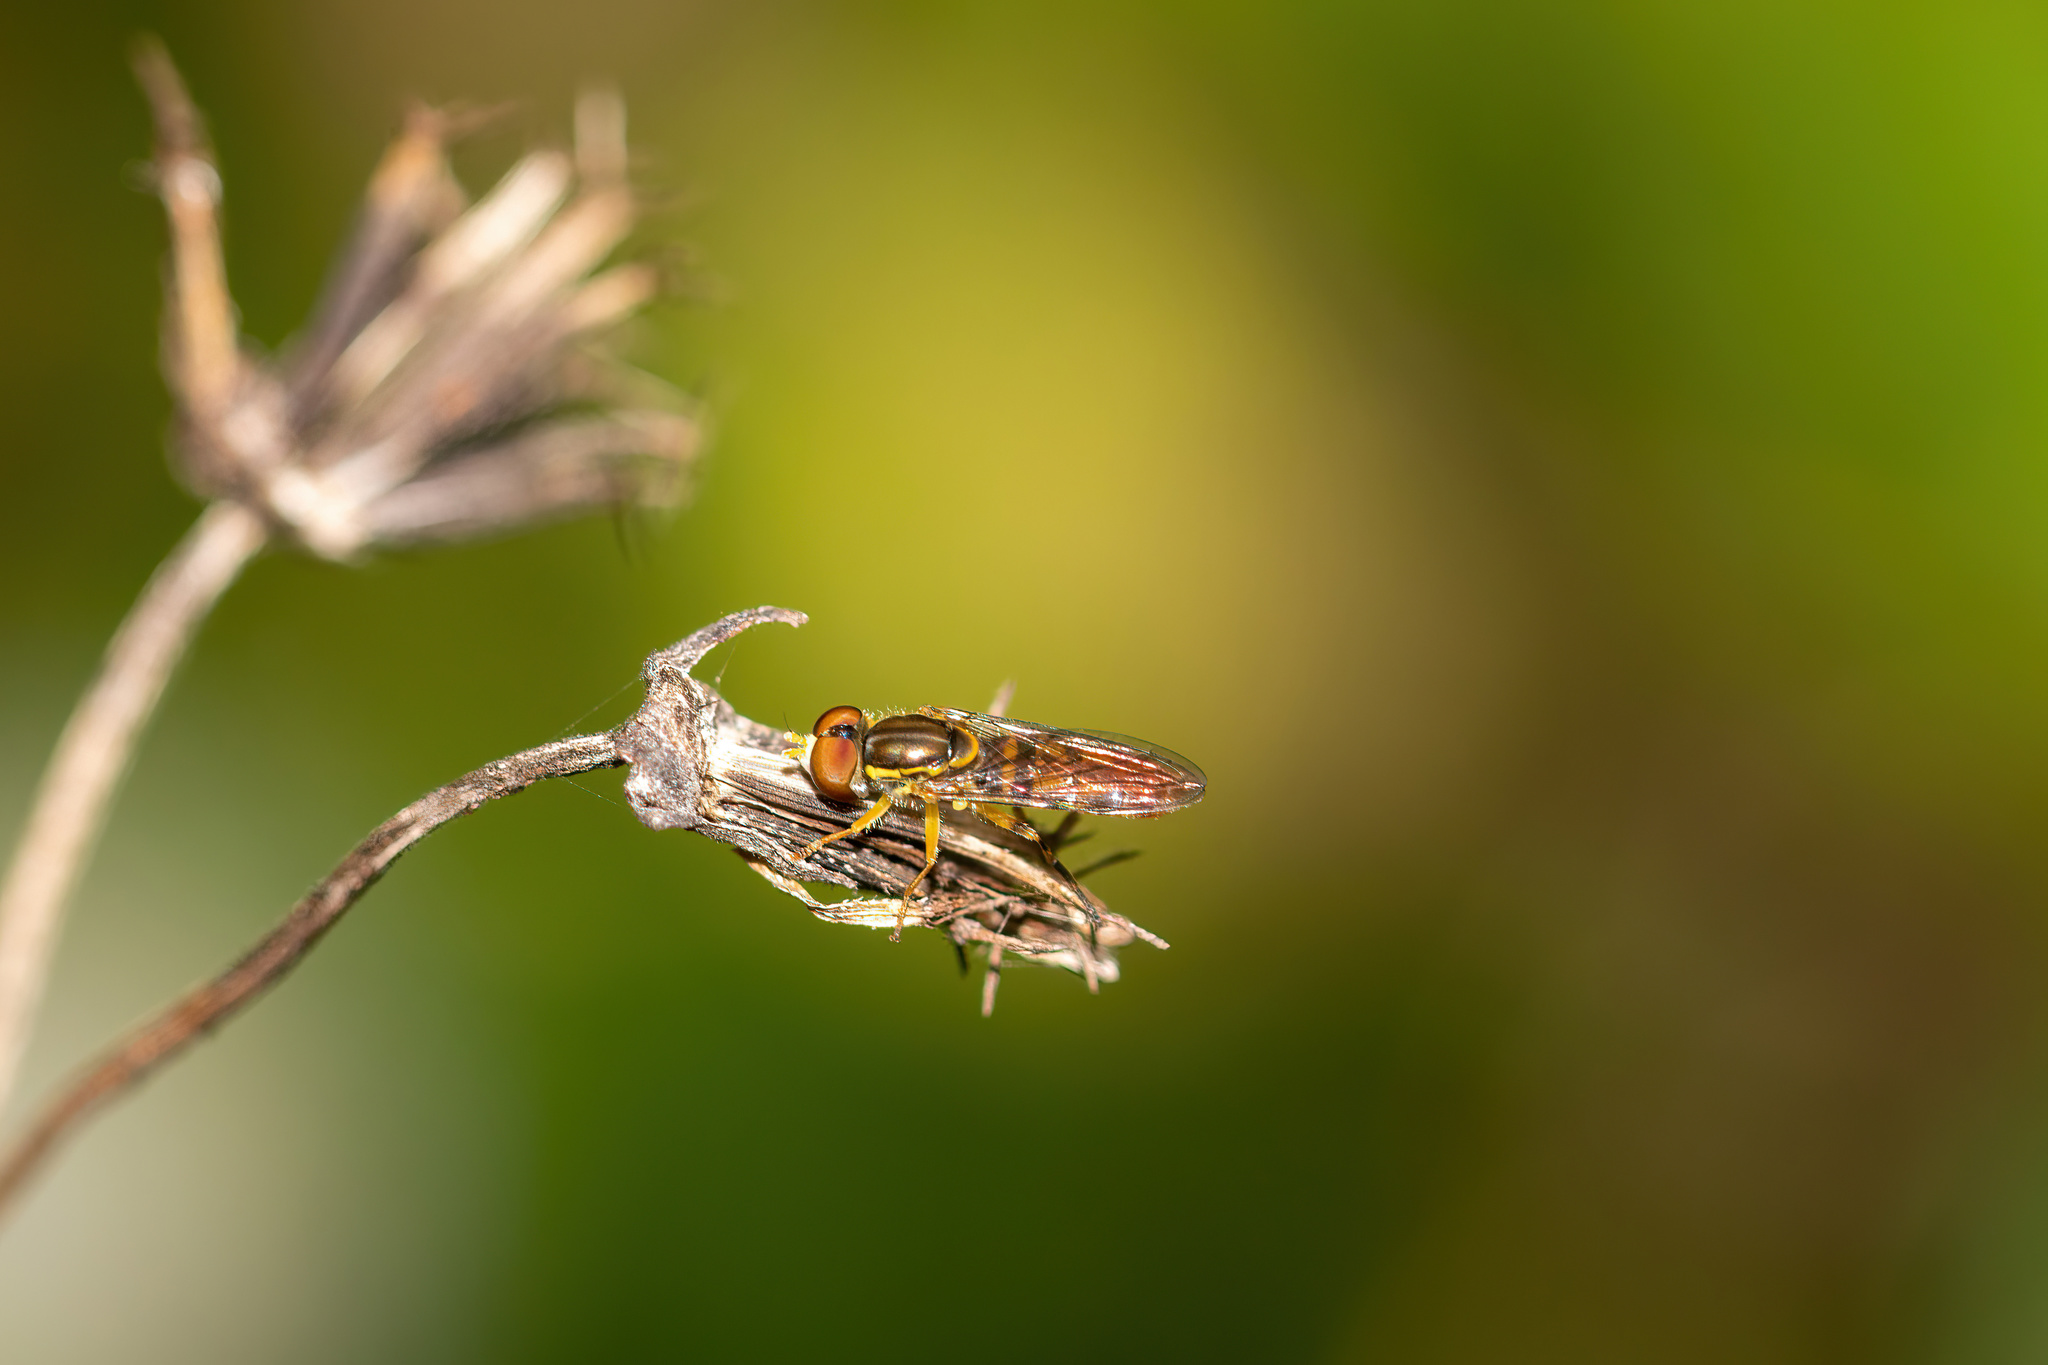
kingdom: Animalia
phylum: Arthropoda
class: Insecta
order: Diptera
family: Syrphidae
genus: Toxomerus
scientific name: Toxomerus floralis
